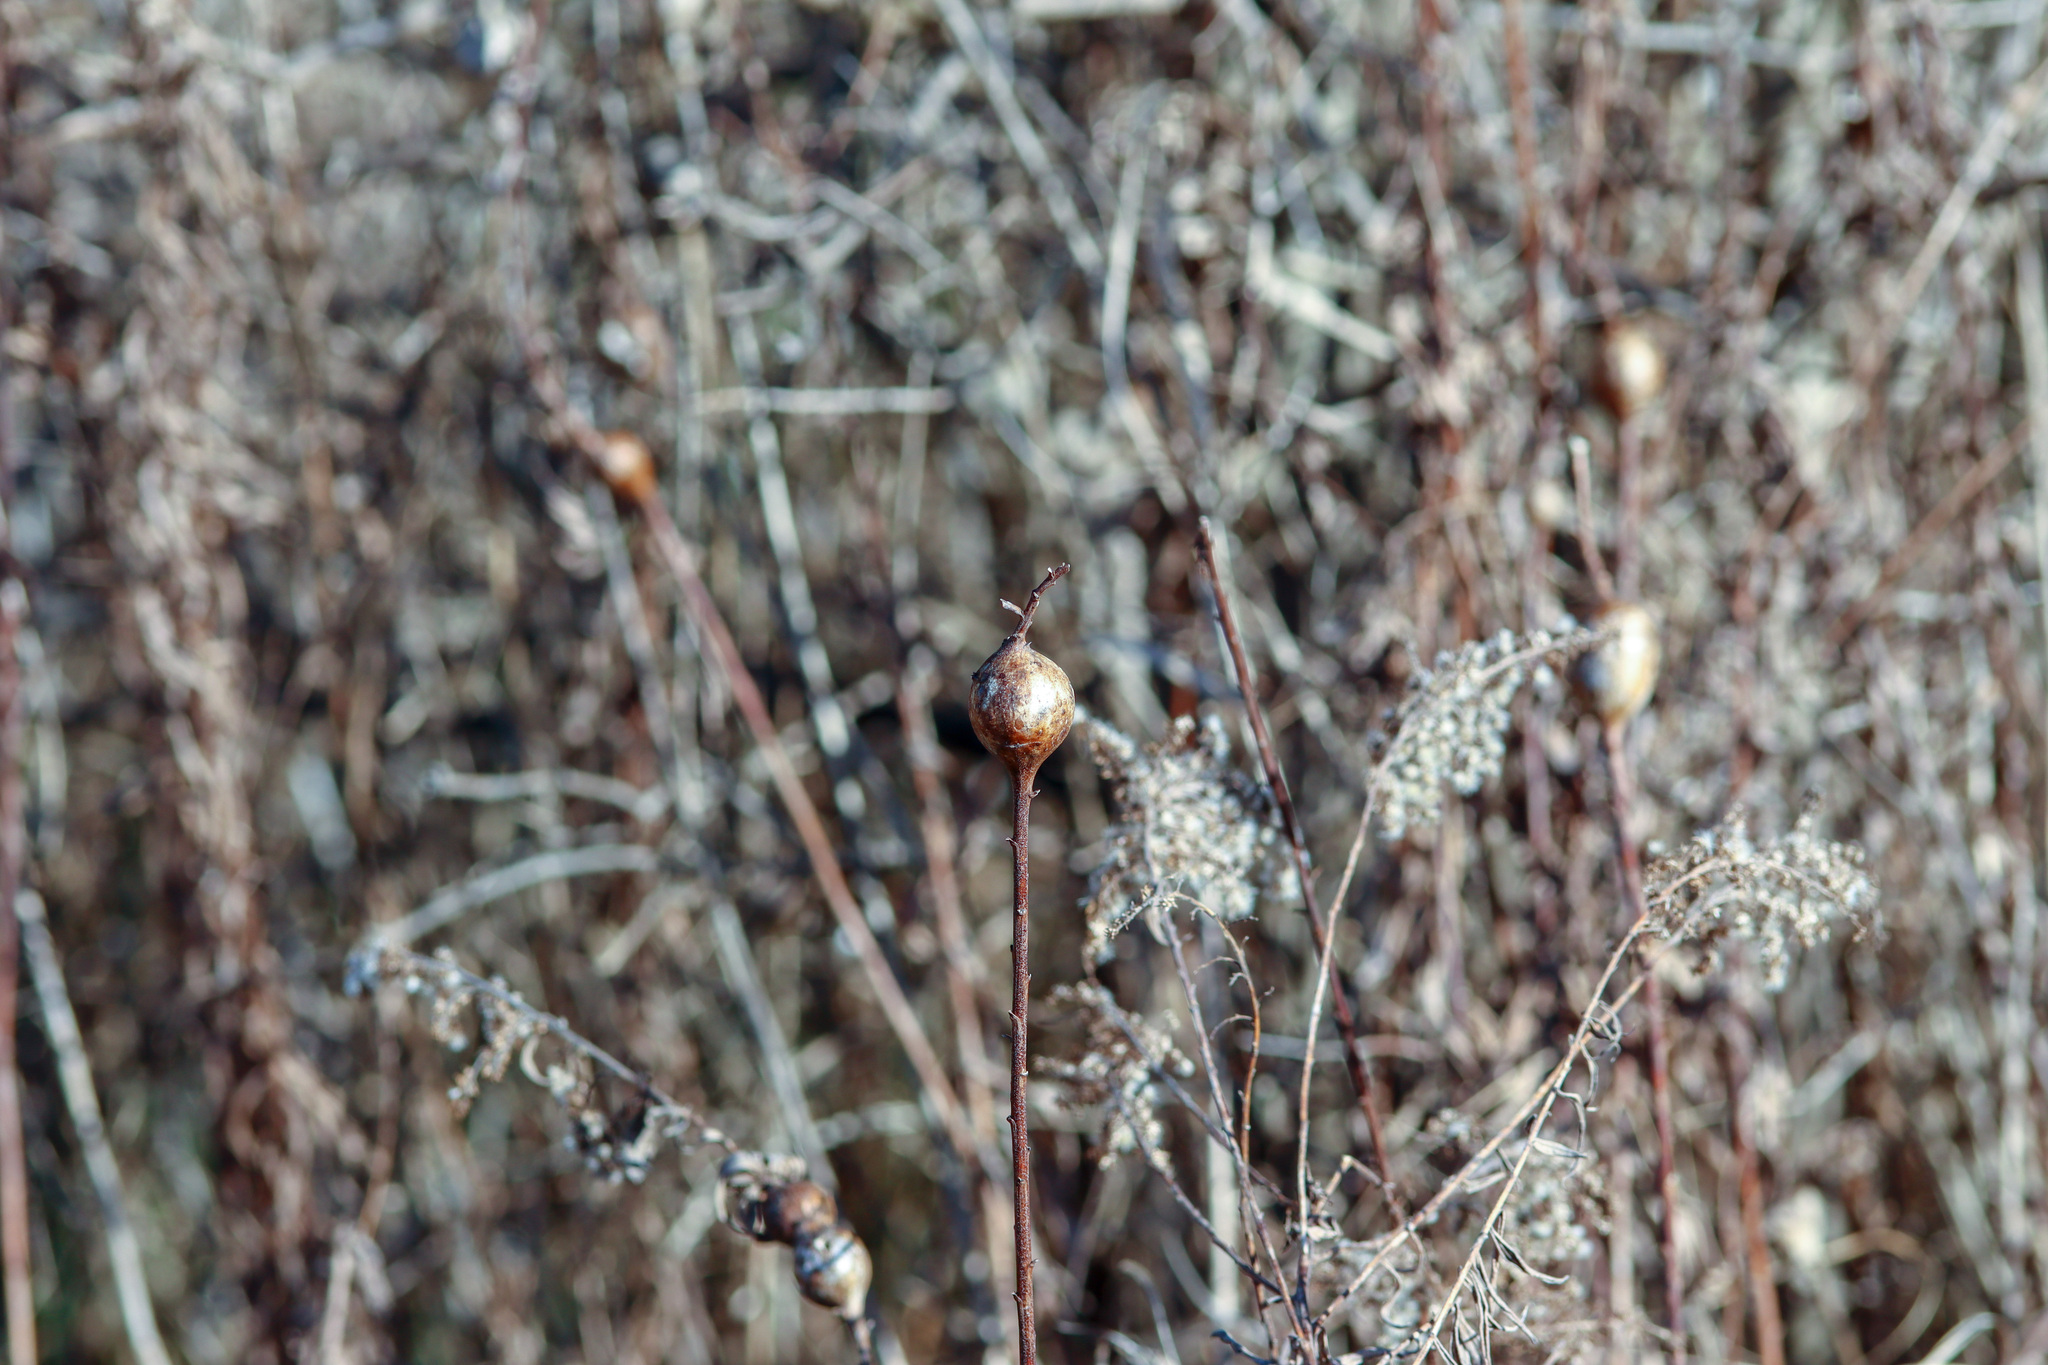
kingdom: Animalia
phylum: Arthropoda
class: Insecta
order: Diptera
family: Tephritidae
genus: Eurosta
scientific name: Eurosta solidaginis
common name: Goldenrod gall fly
